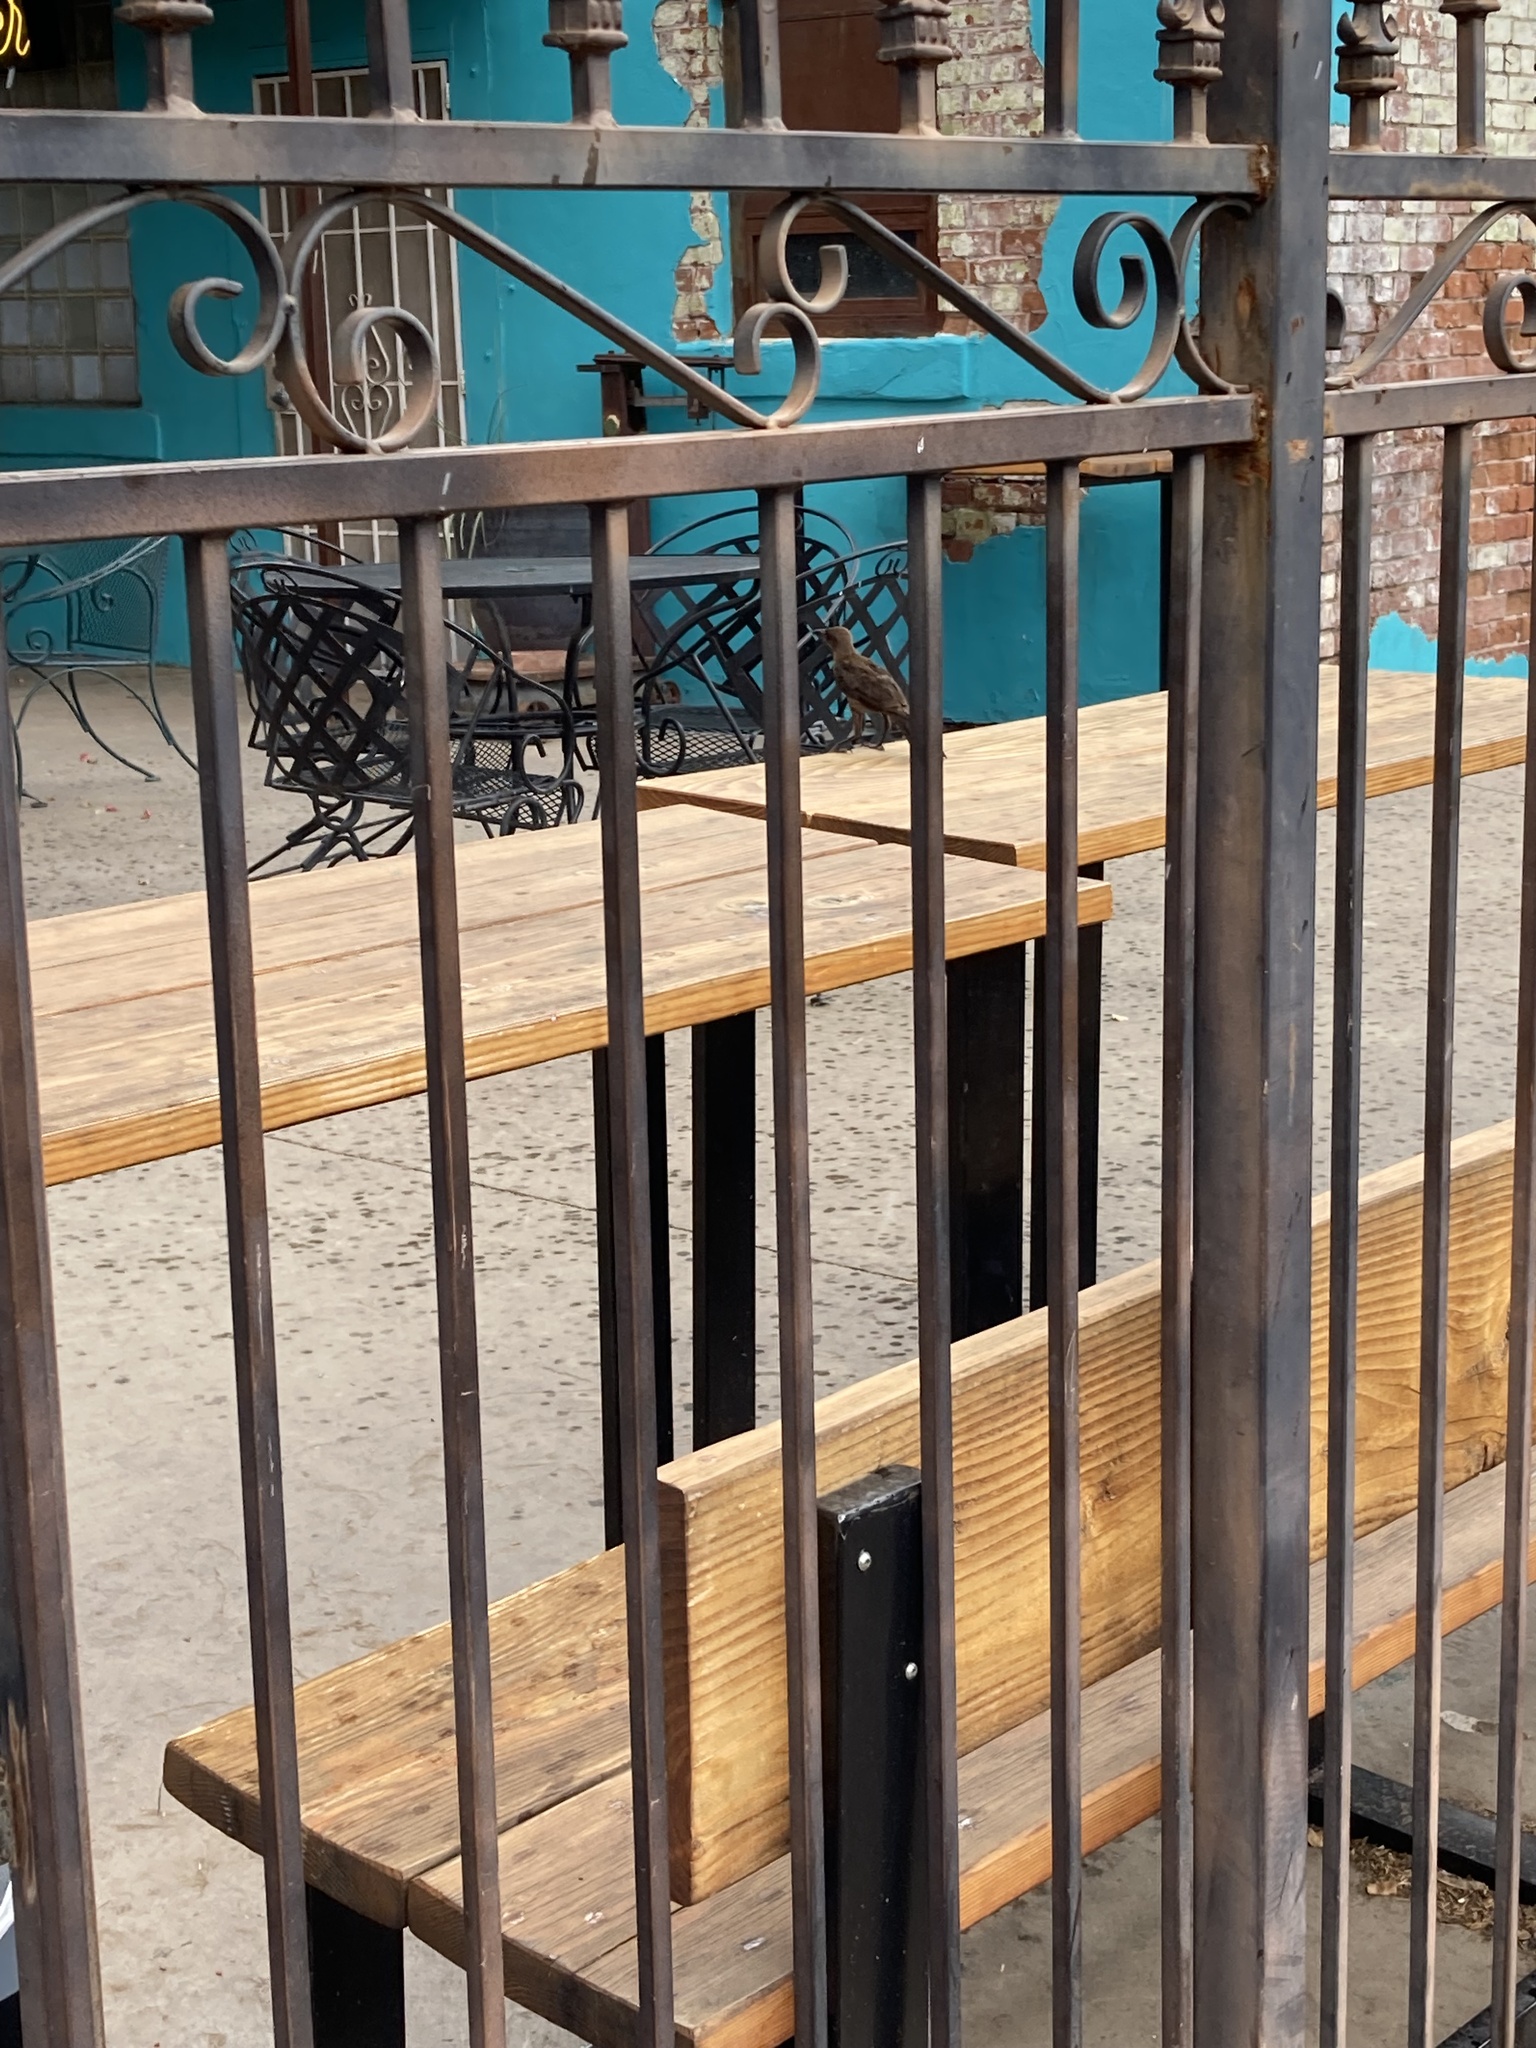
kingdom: Animalia
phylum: Chordata
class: Aves
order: Passeriformes
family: Icteridae
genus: Quiscalus
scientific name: Quiscalus mexicanus
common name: Great-tailed grackle
